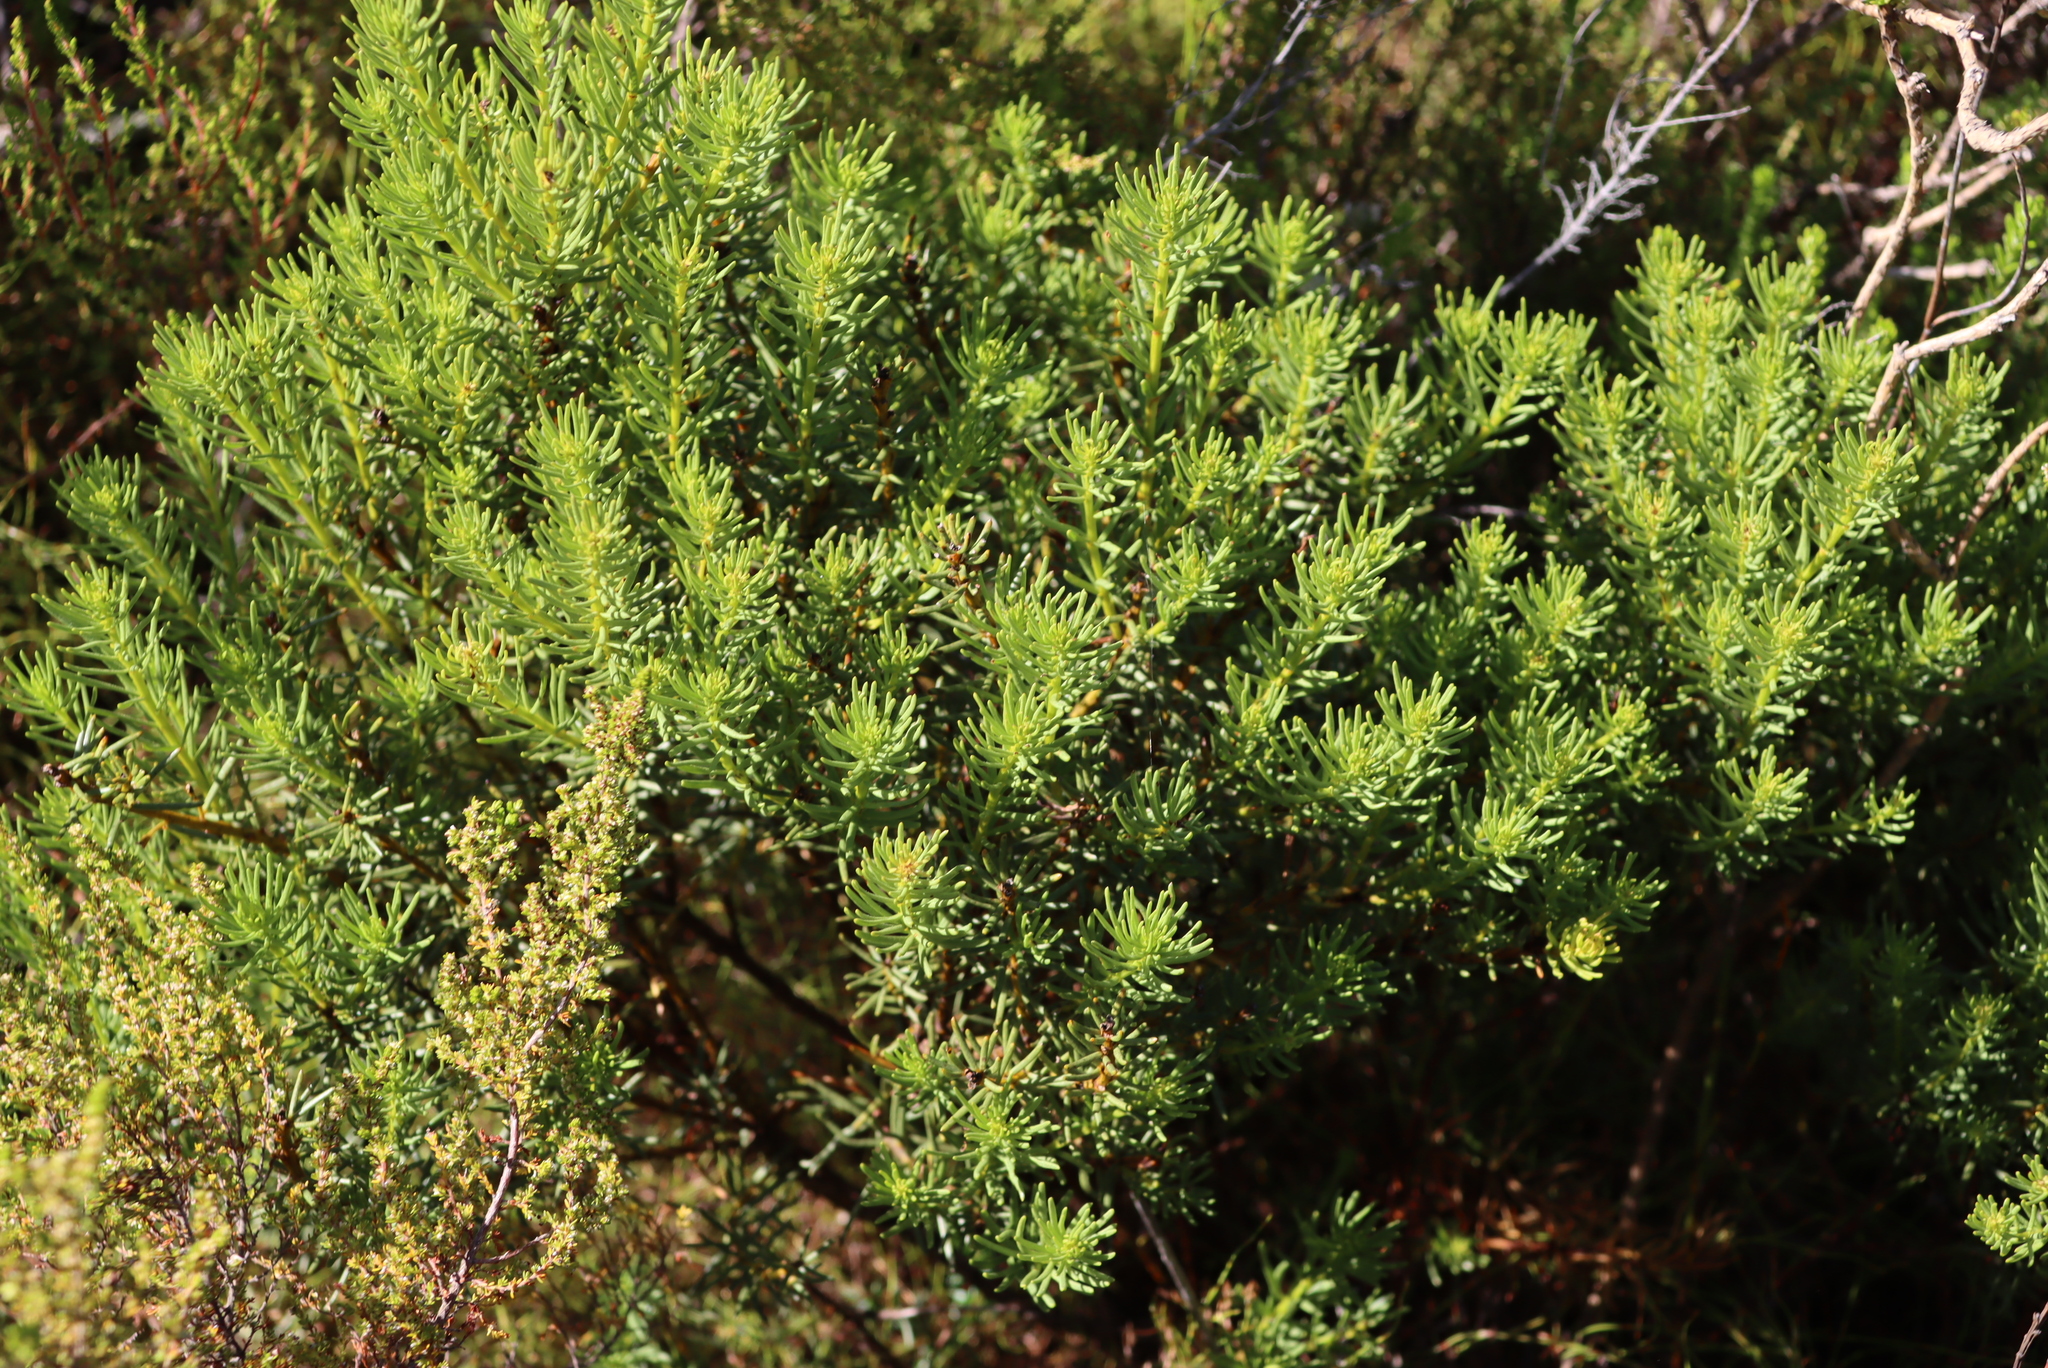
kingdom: Plantae
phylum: Tracheophyta
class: Magnoliopsida
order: Fabales
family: Fabaceae
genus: Cyclopia
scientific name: Cyclopia genistoides
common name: Honeybush tea
